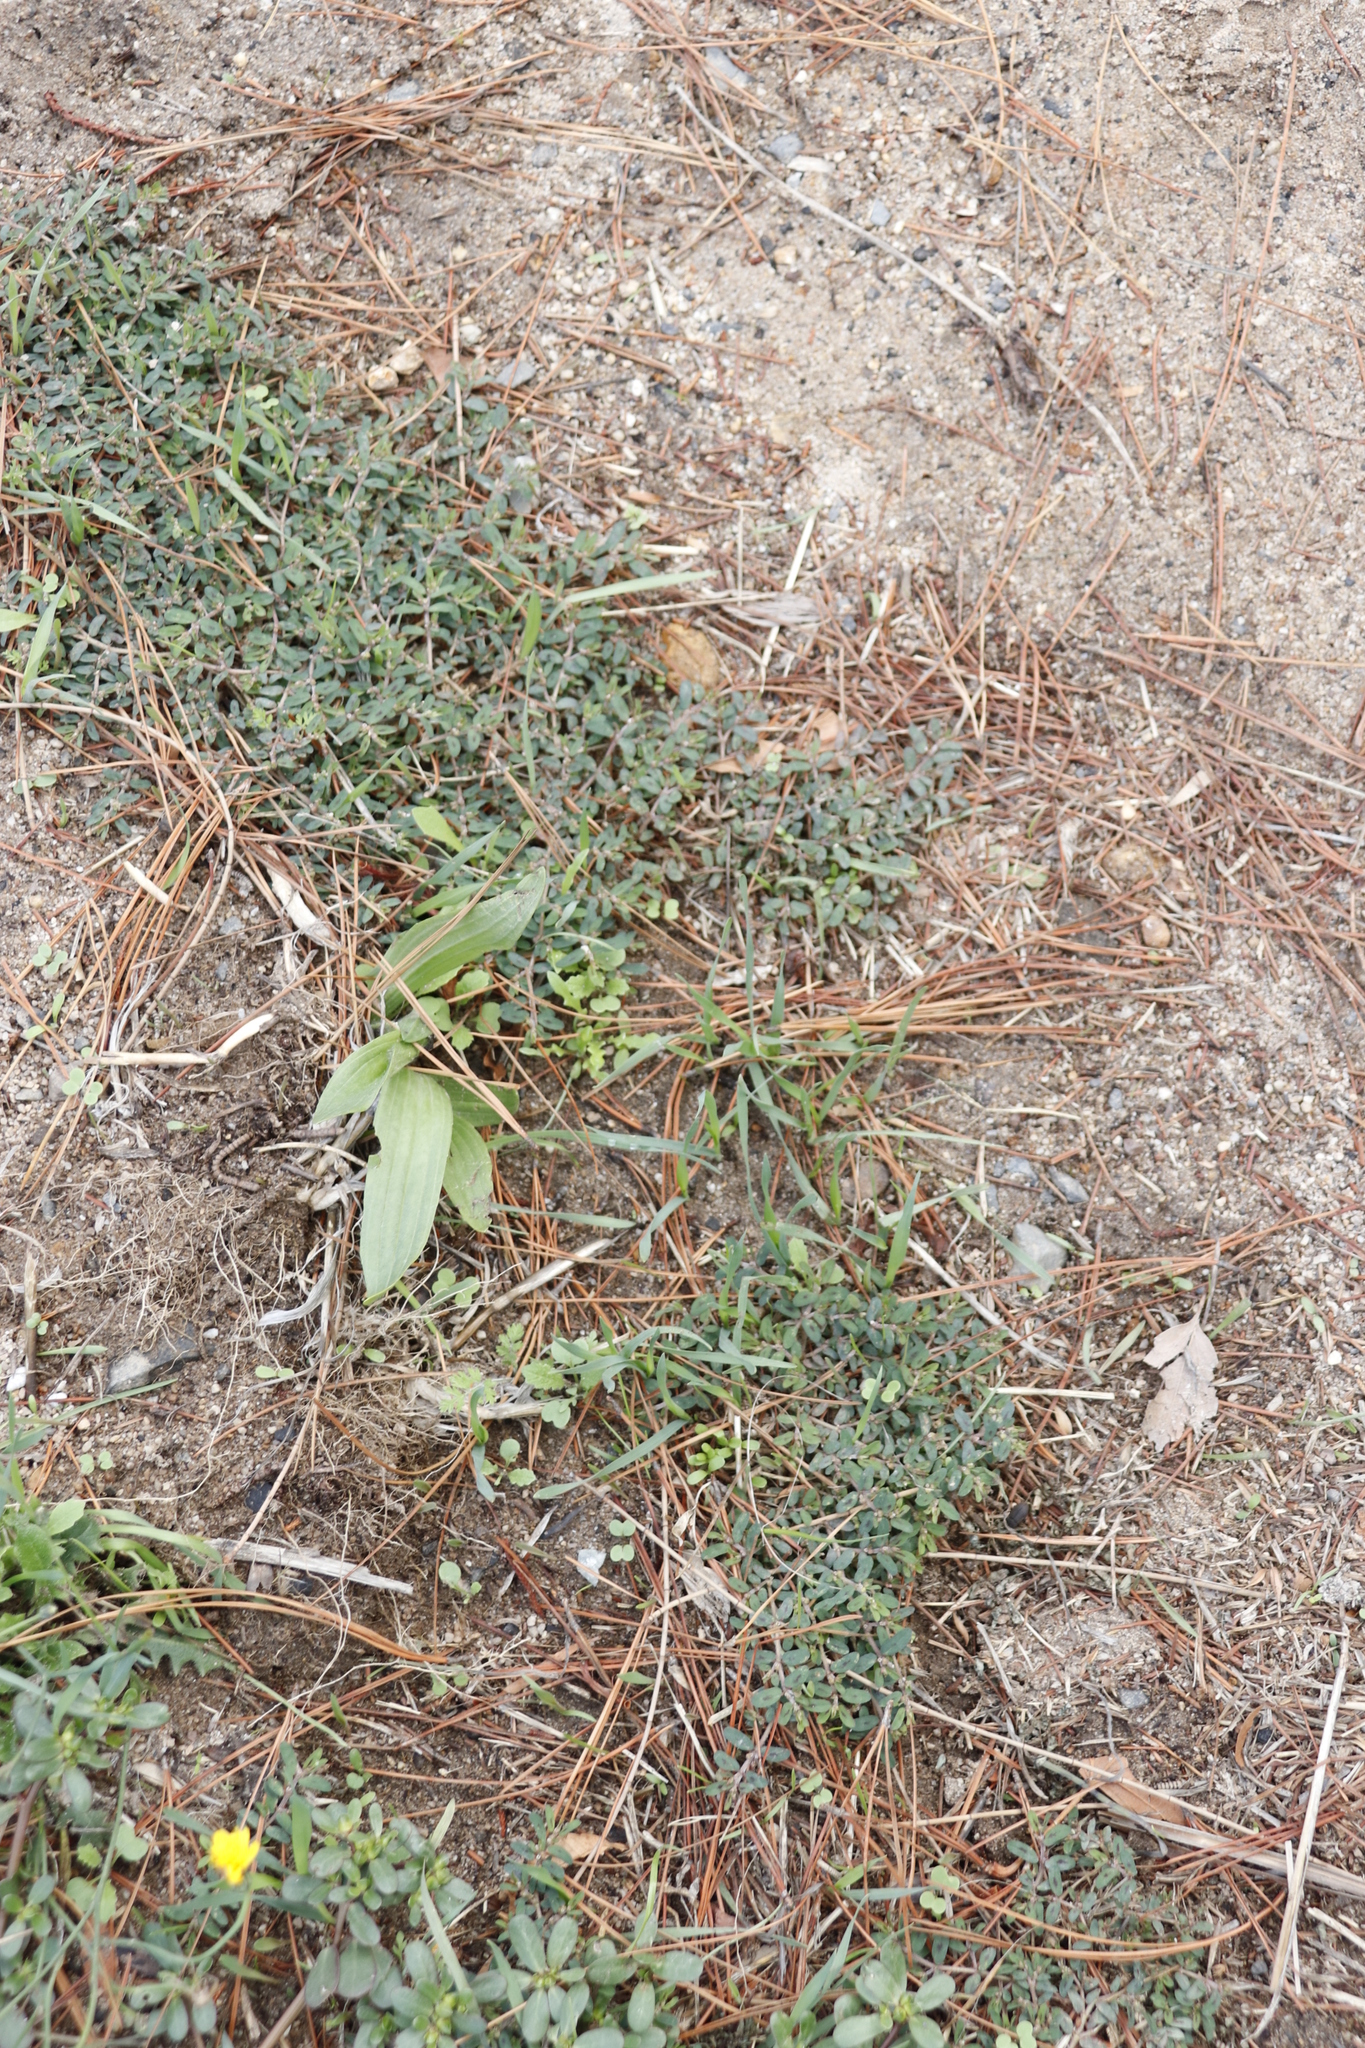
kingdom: Plantae
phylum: Tracheophyta
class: Magnoliopsida
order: Malpighiales
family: Euphorbiaceae
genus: Euphorbia
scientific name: Euphorbia maculata
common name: Spotted spurge
